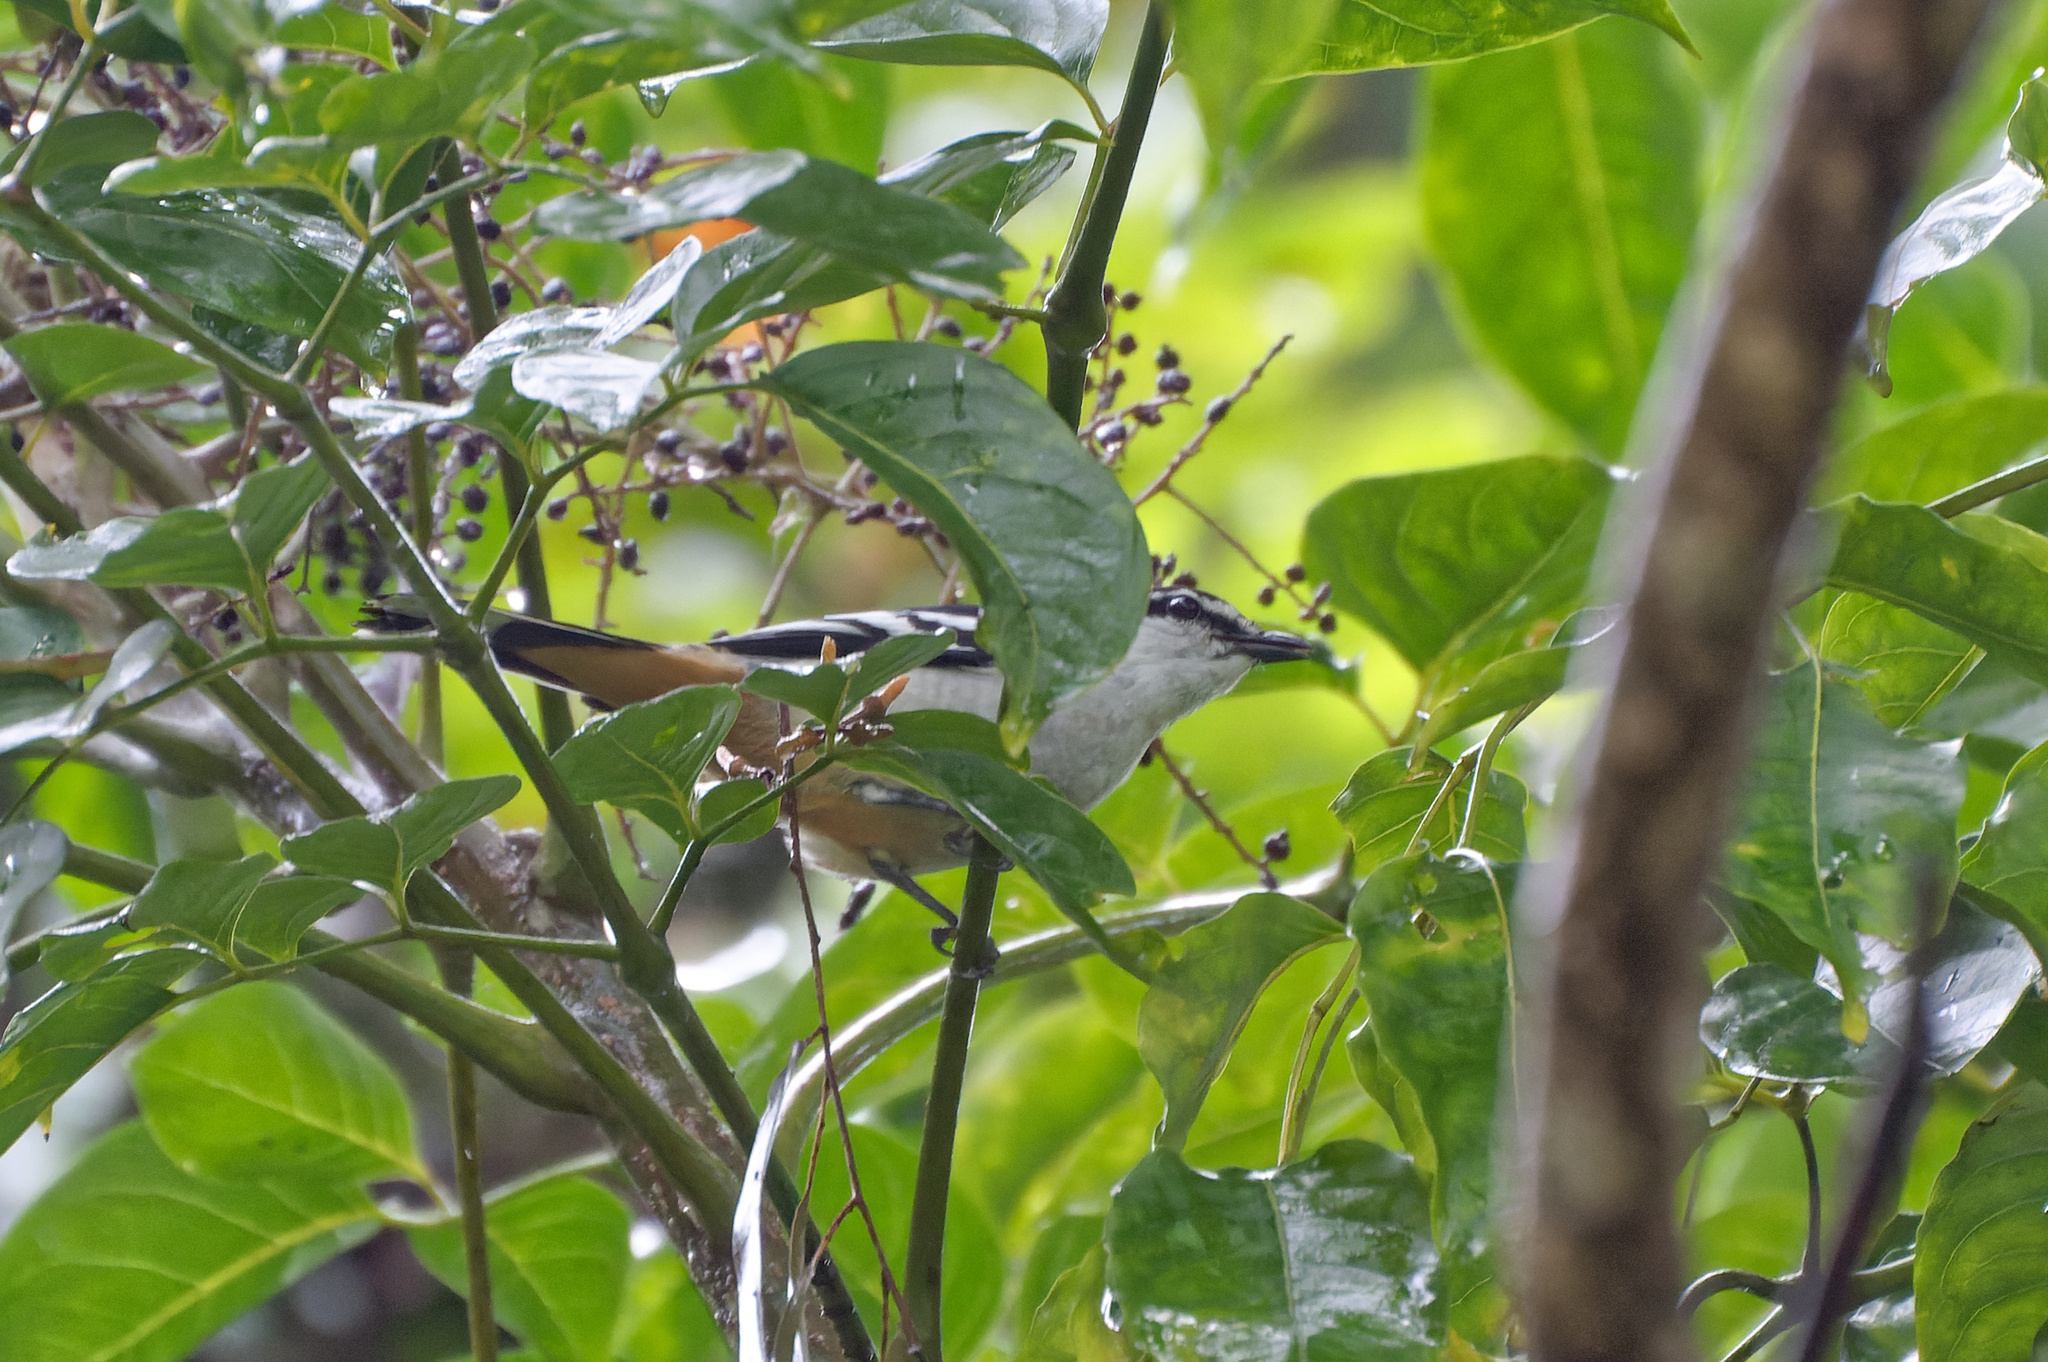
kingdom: Animalia
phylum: Chordata
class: Aves
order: Passeriformes
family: Campephagidae
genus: Lalage
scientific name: Lalage leucomela
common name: Varied triller
